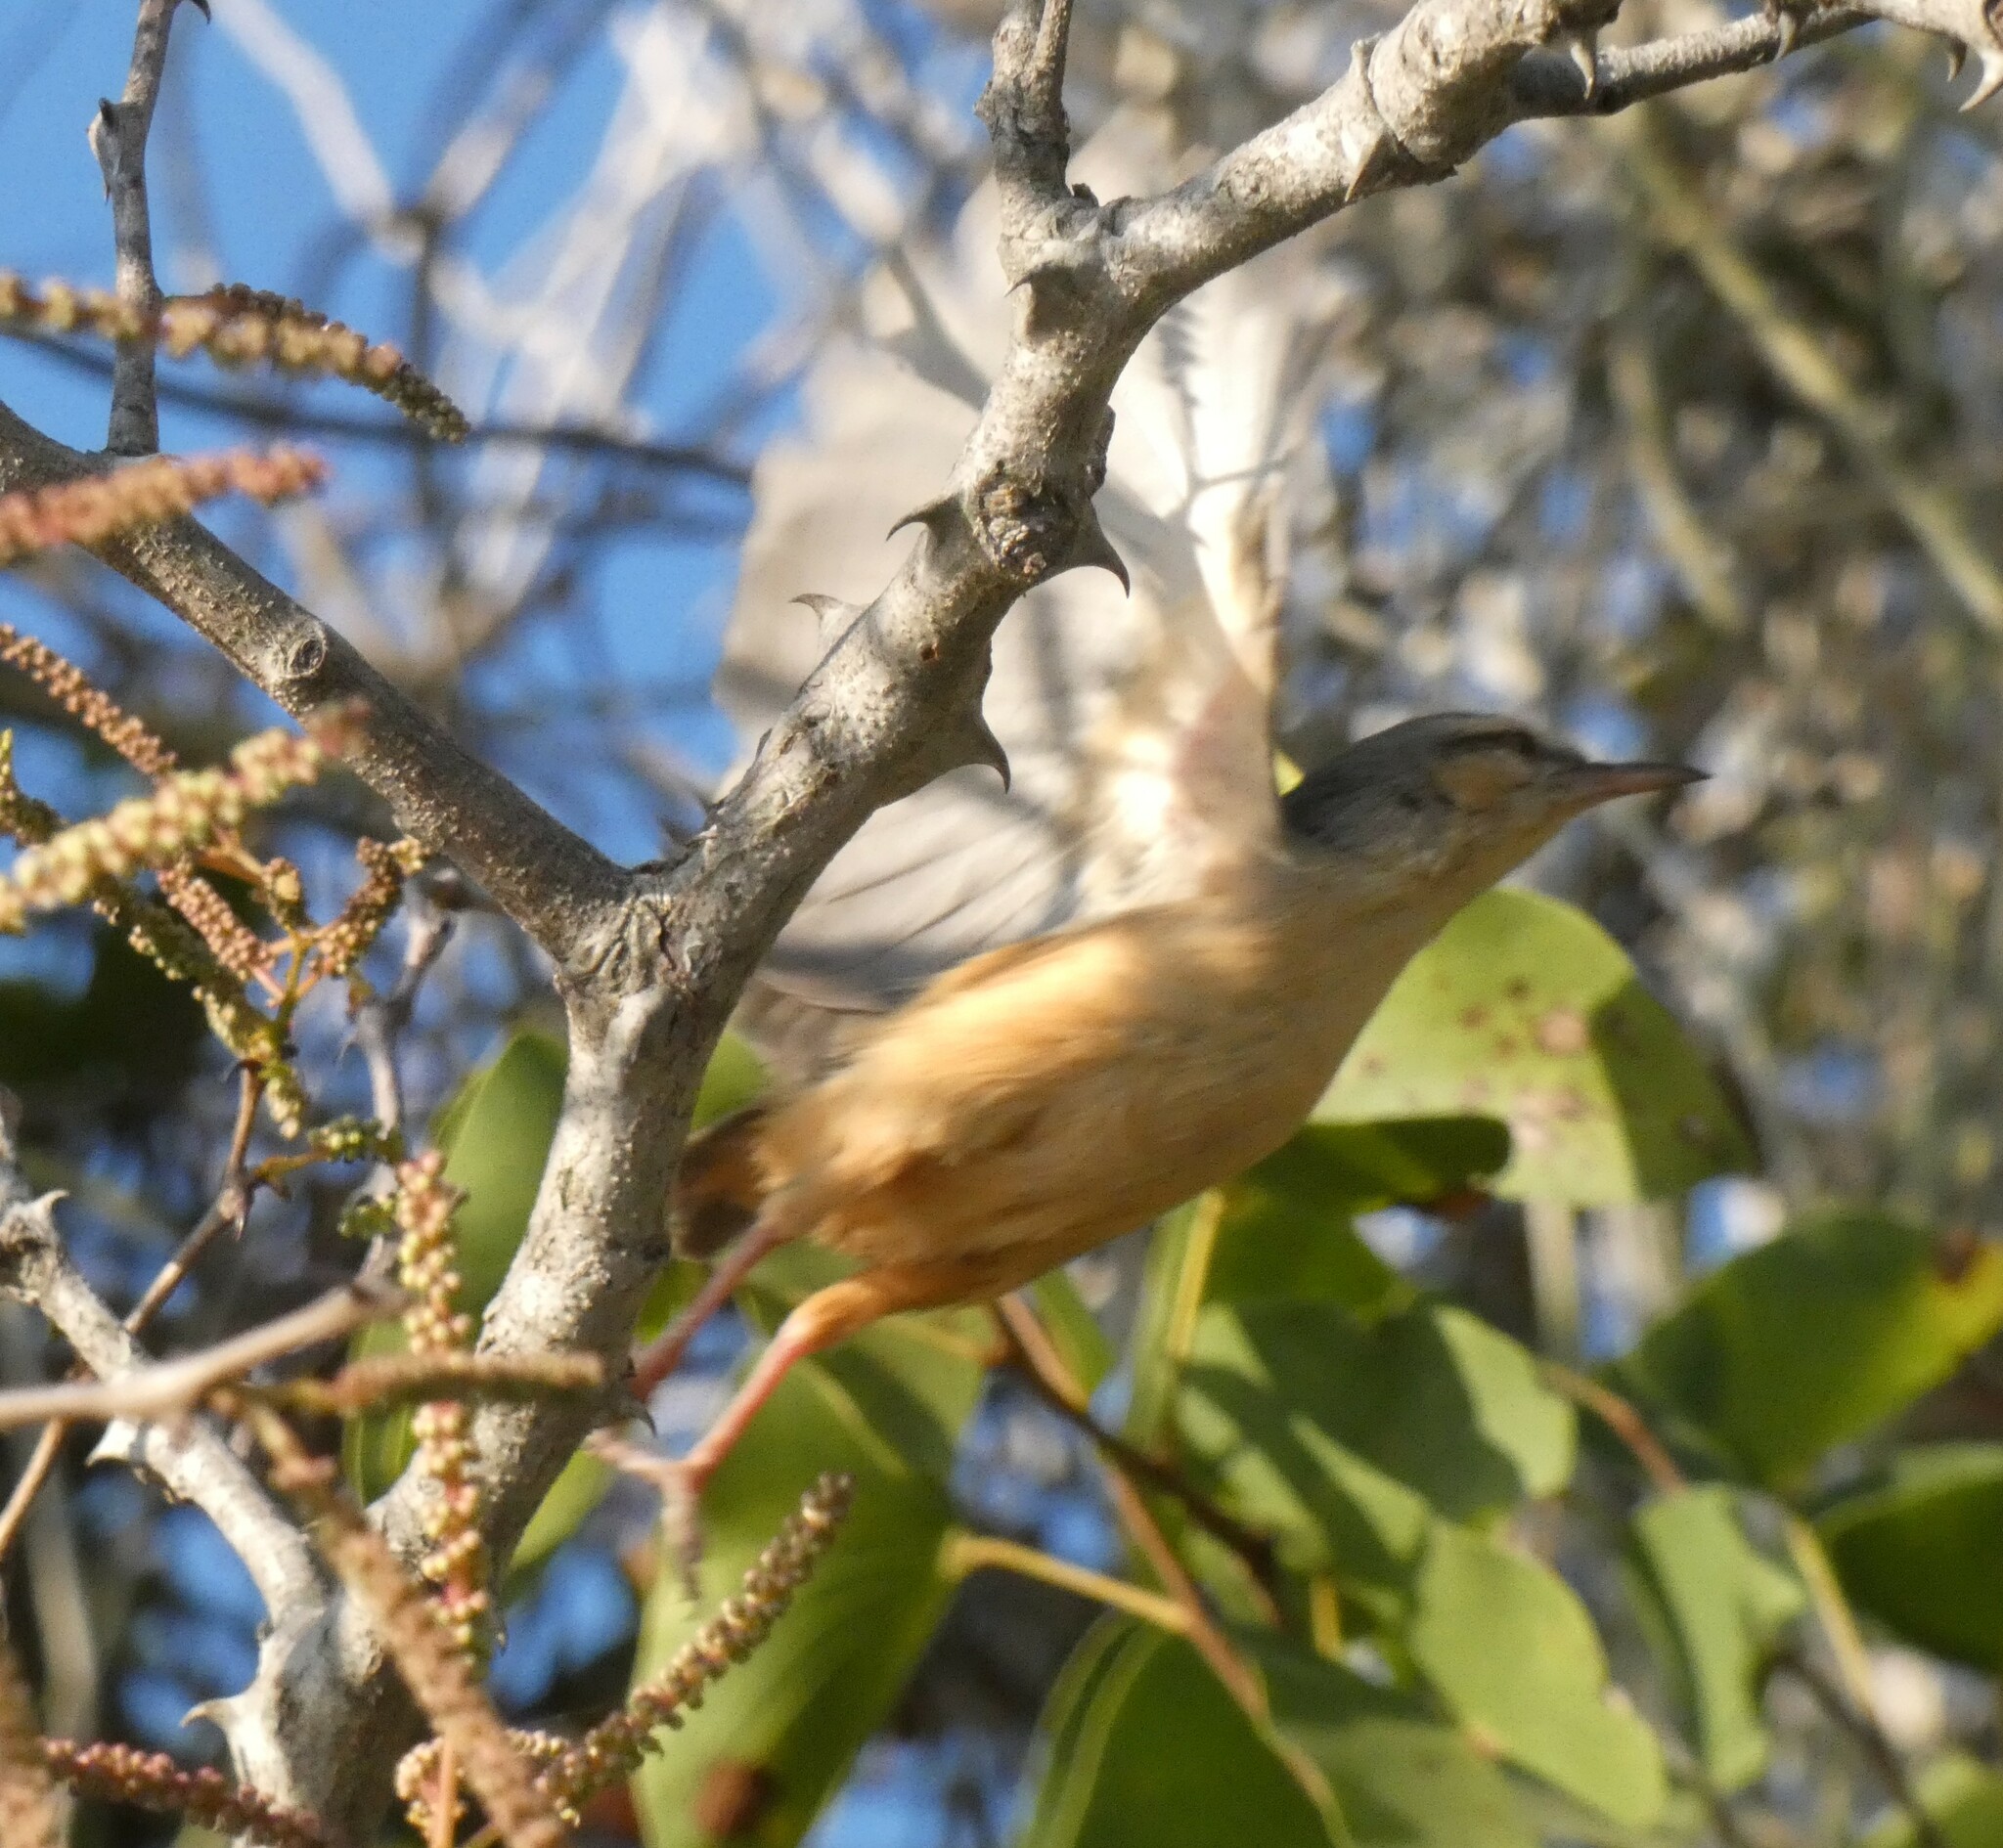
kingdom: Animalia
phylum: Chordata
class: Aves
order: Passeriformes
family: Macrosphenidae
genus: Sylvietta
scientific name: Sylvietta rufescens
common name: Long-billed crombec
